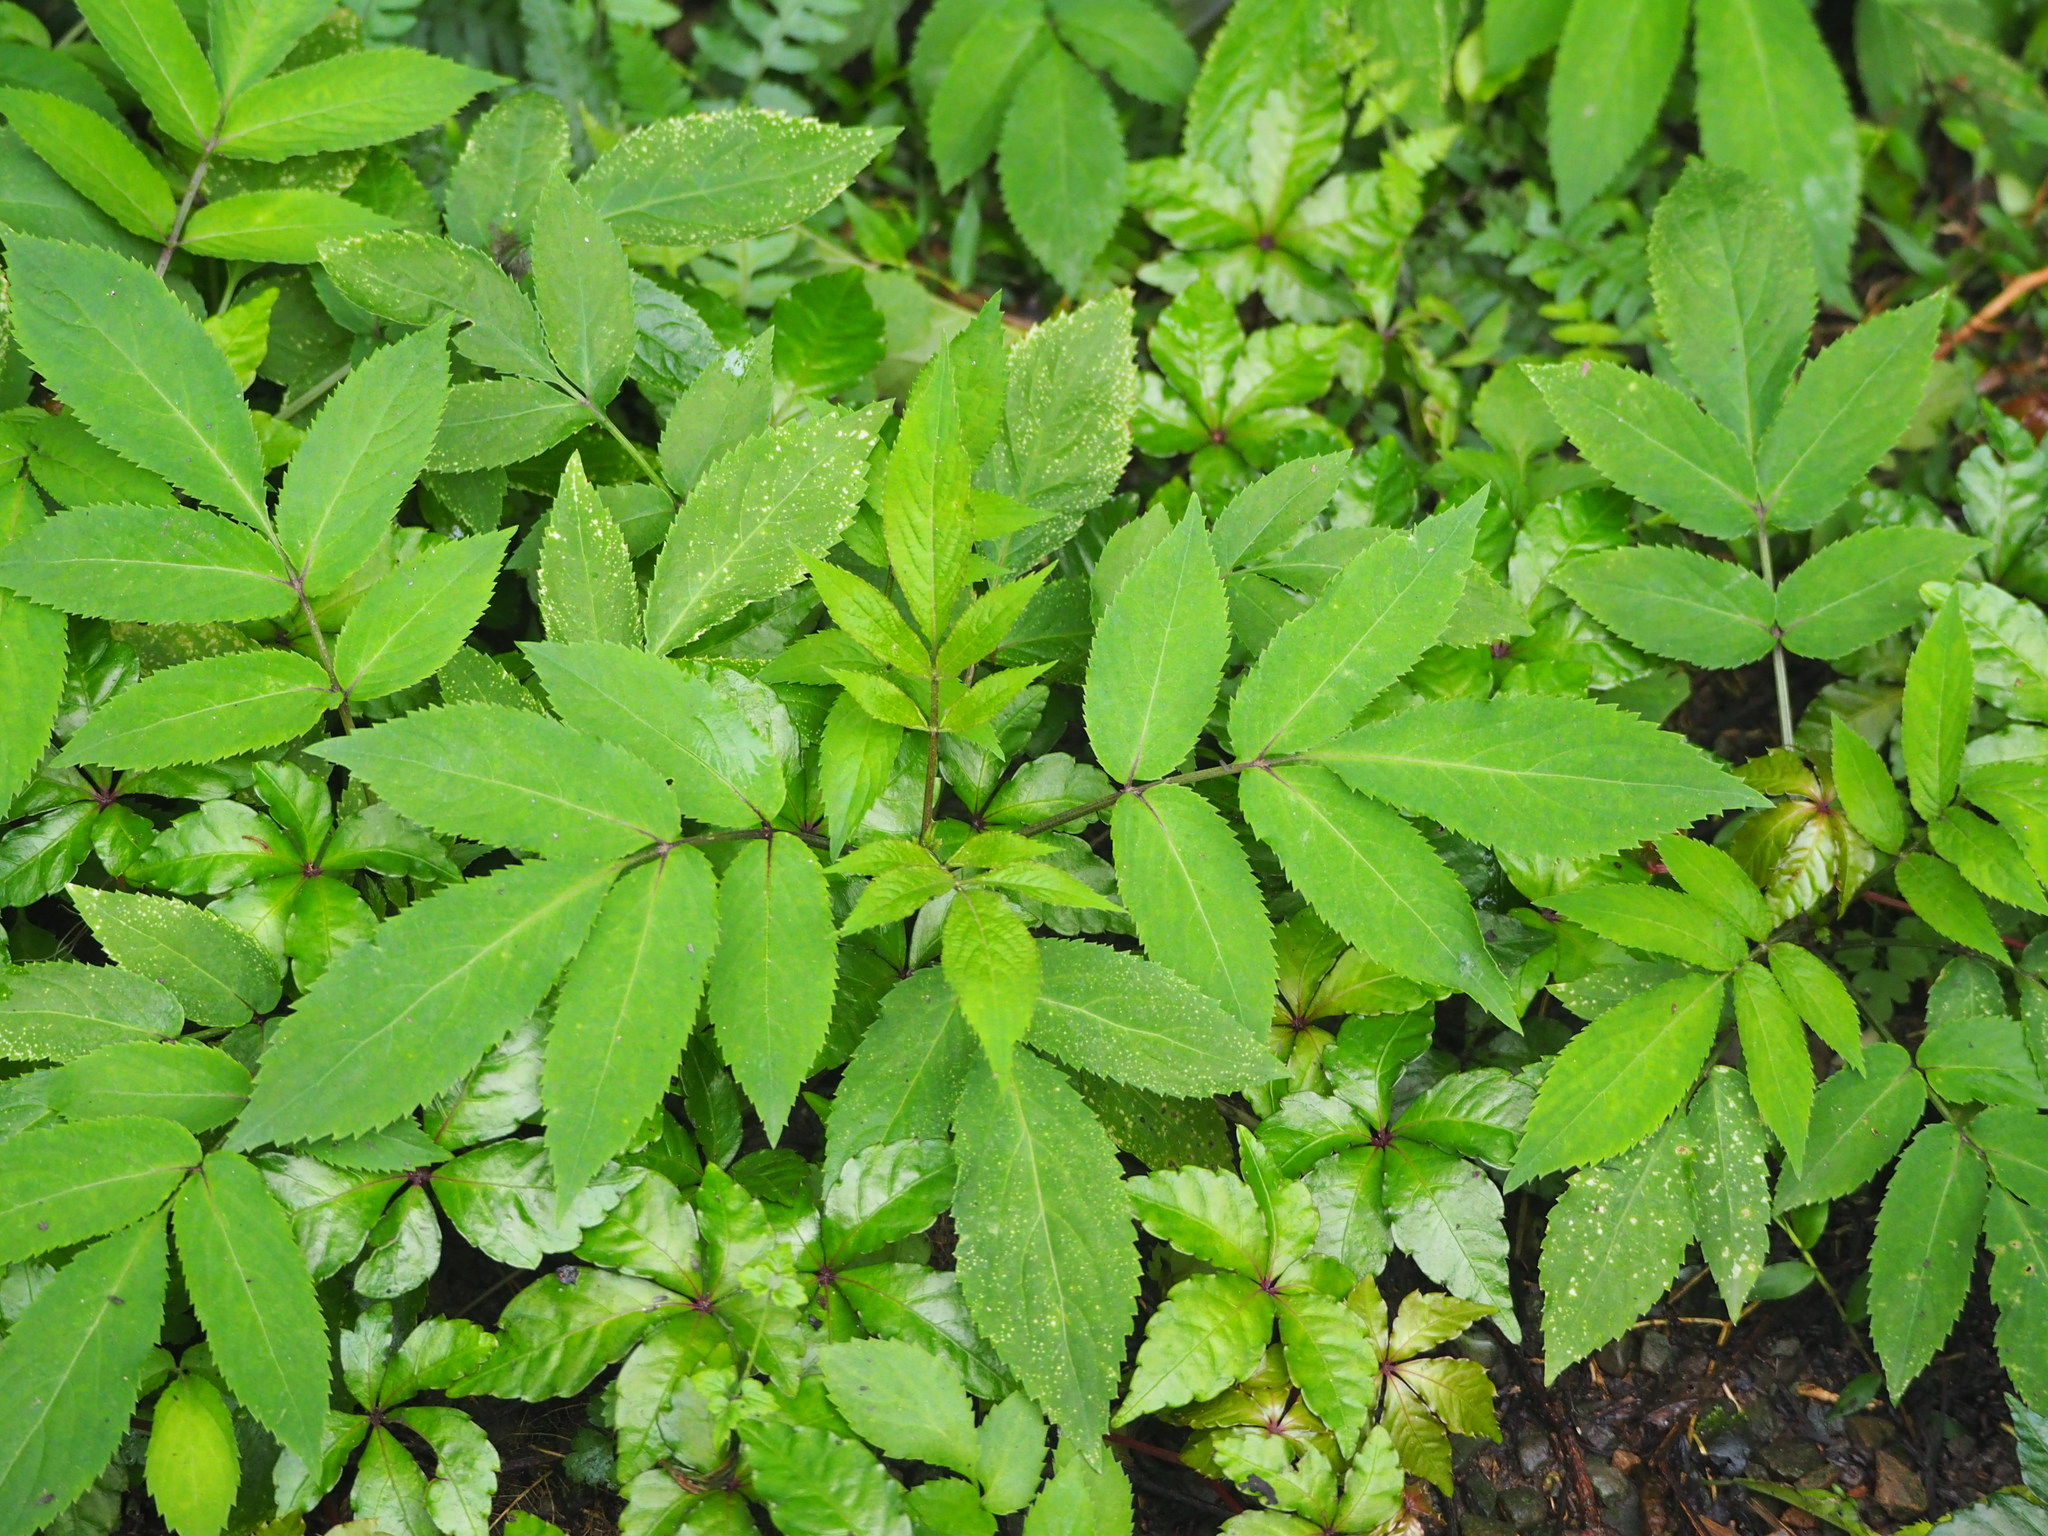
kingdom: Plantae
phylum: Tracheophyta
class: Magnoliopsida
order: Dipsacales
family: Viburnaceae
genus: Sambucus
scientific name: Sambucus javanica
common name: Chinese elder
